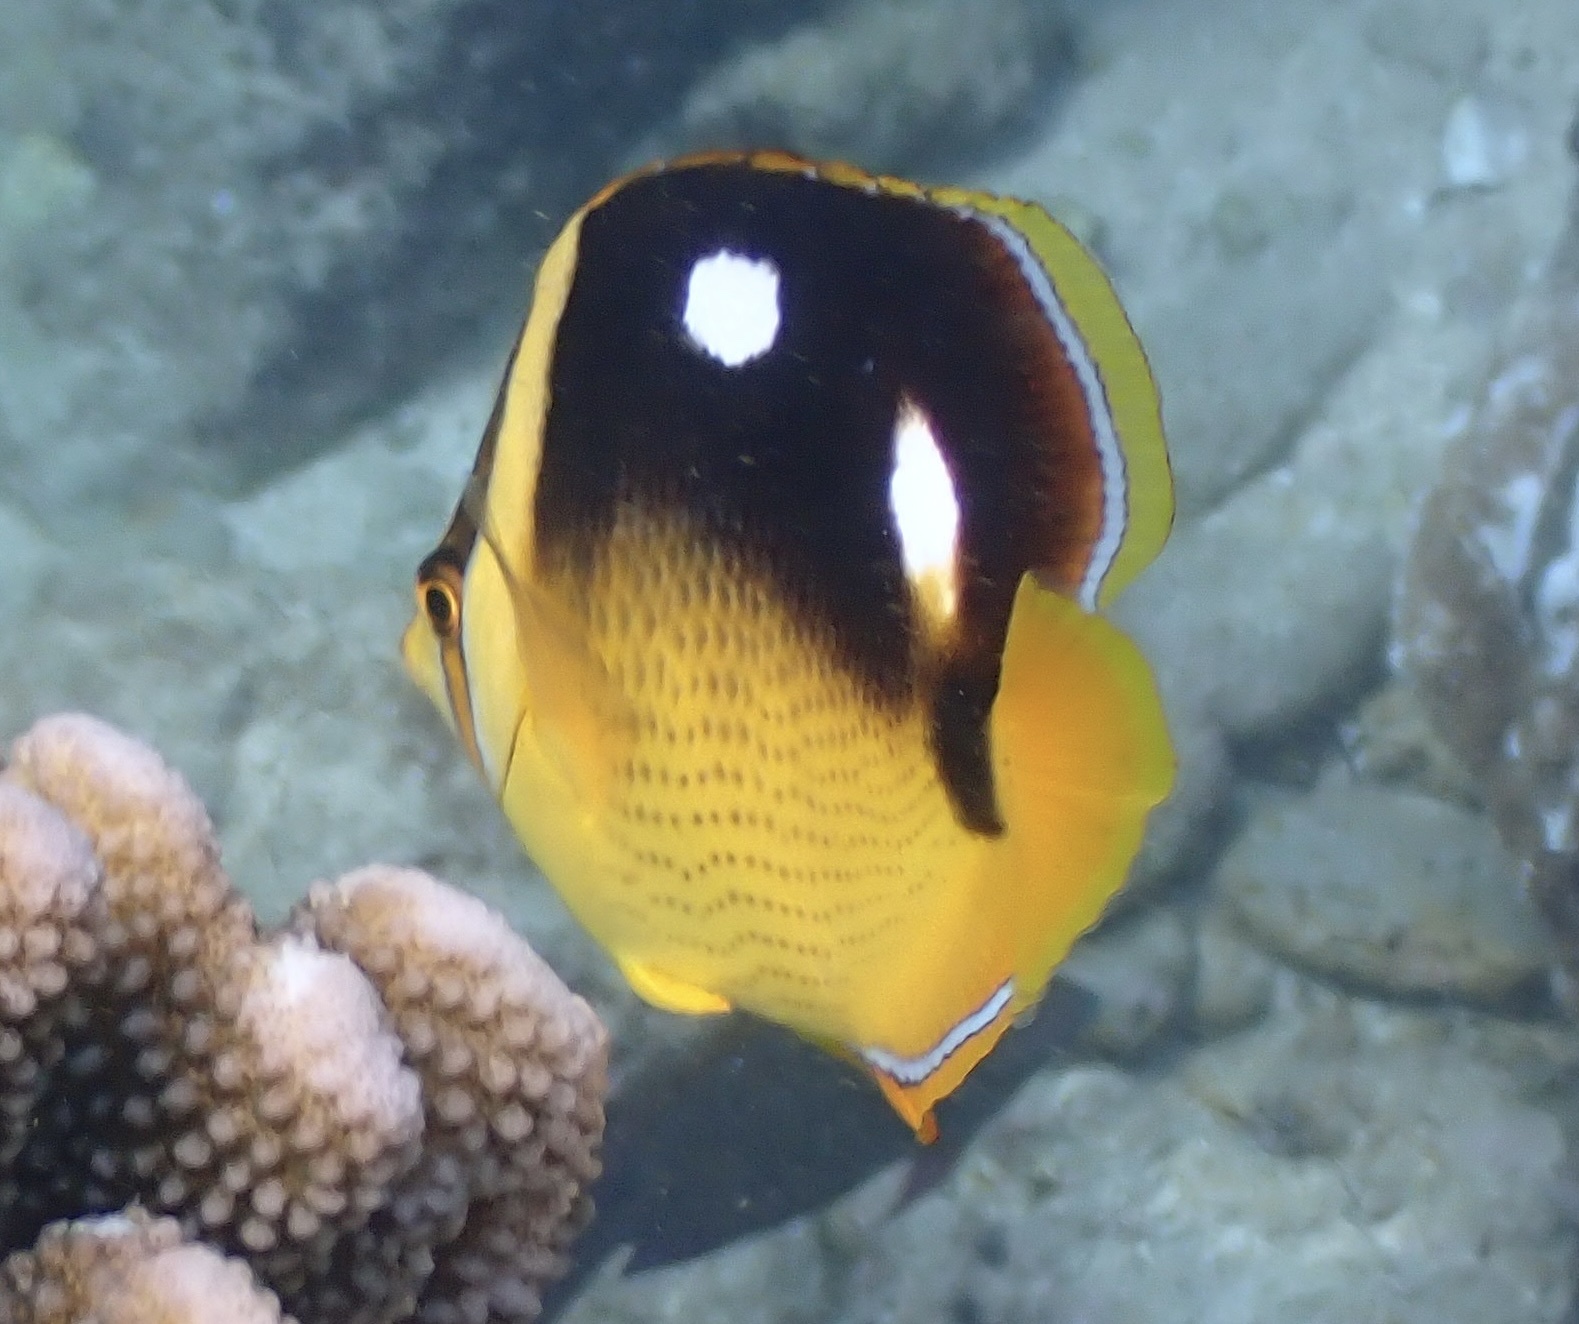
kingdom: Animalia
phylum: Chordata
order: Perciformes
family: Chaetodontidae
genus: Chaetodon
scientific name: Chaetodon quadrimaculatus
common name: Fourspot butterflyfish
